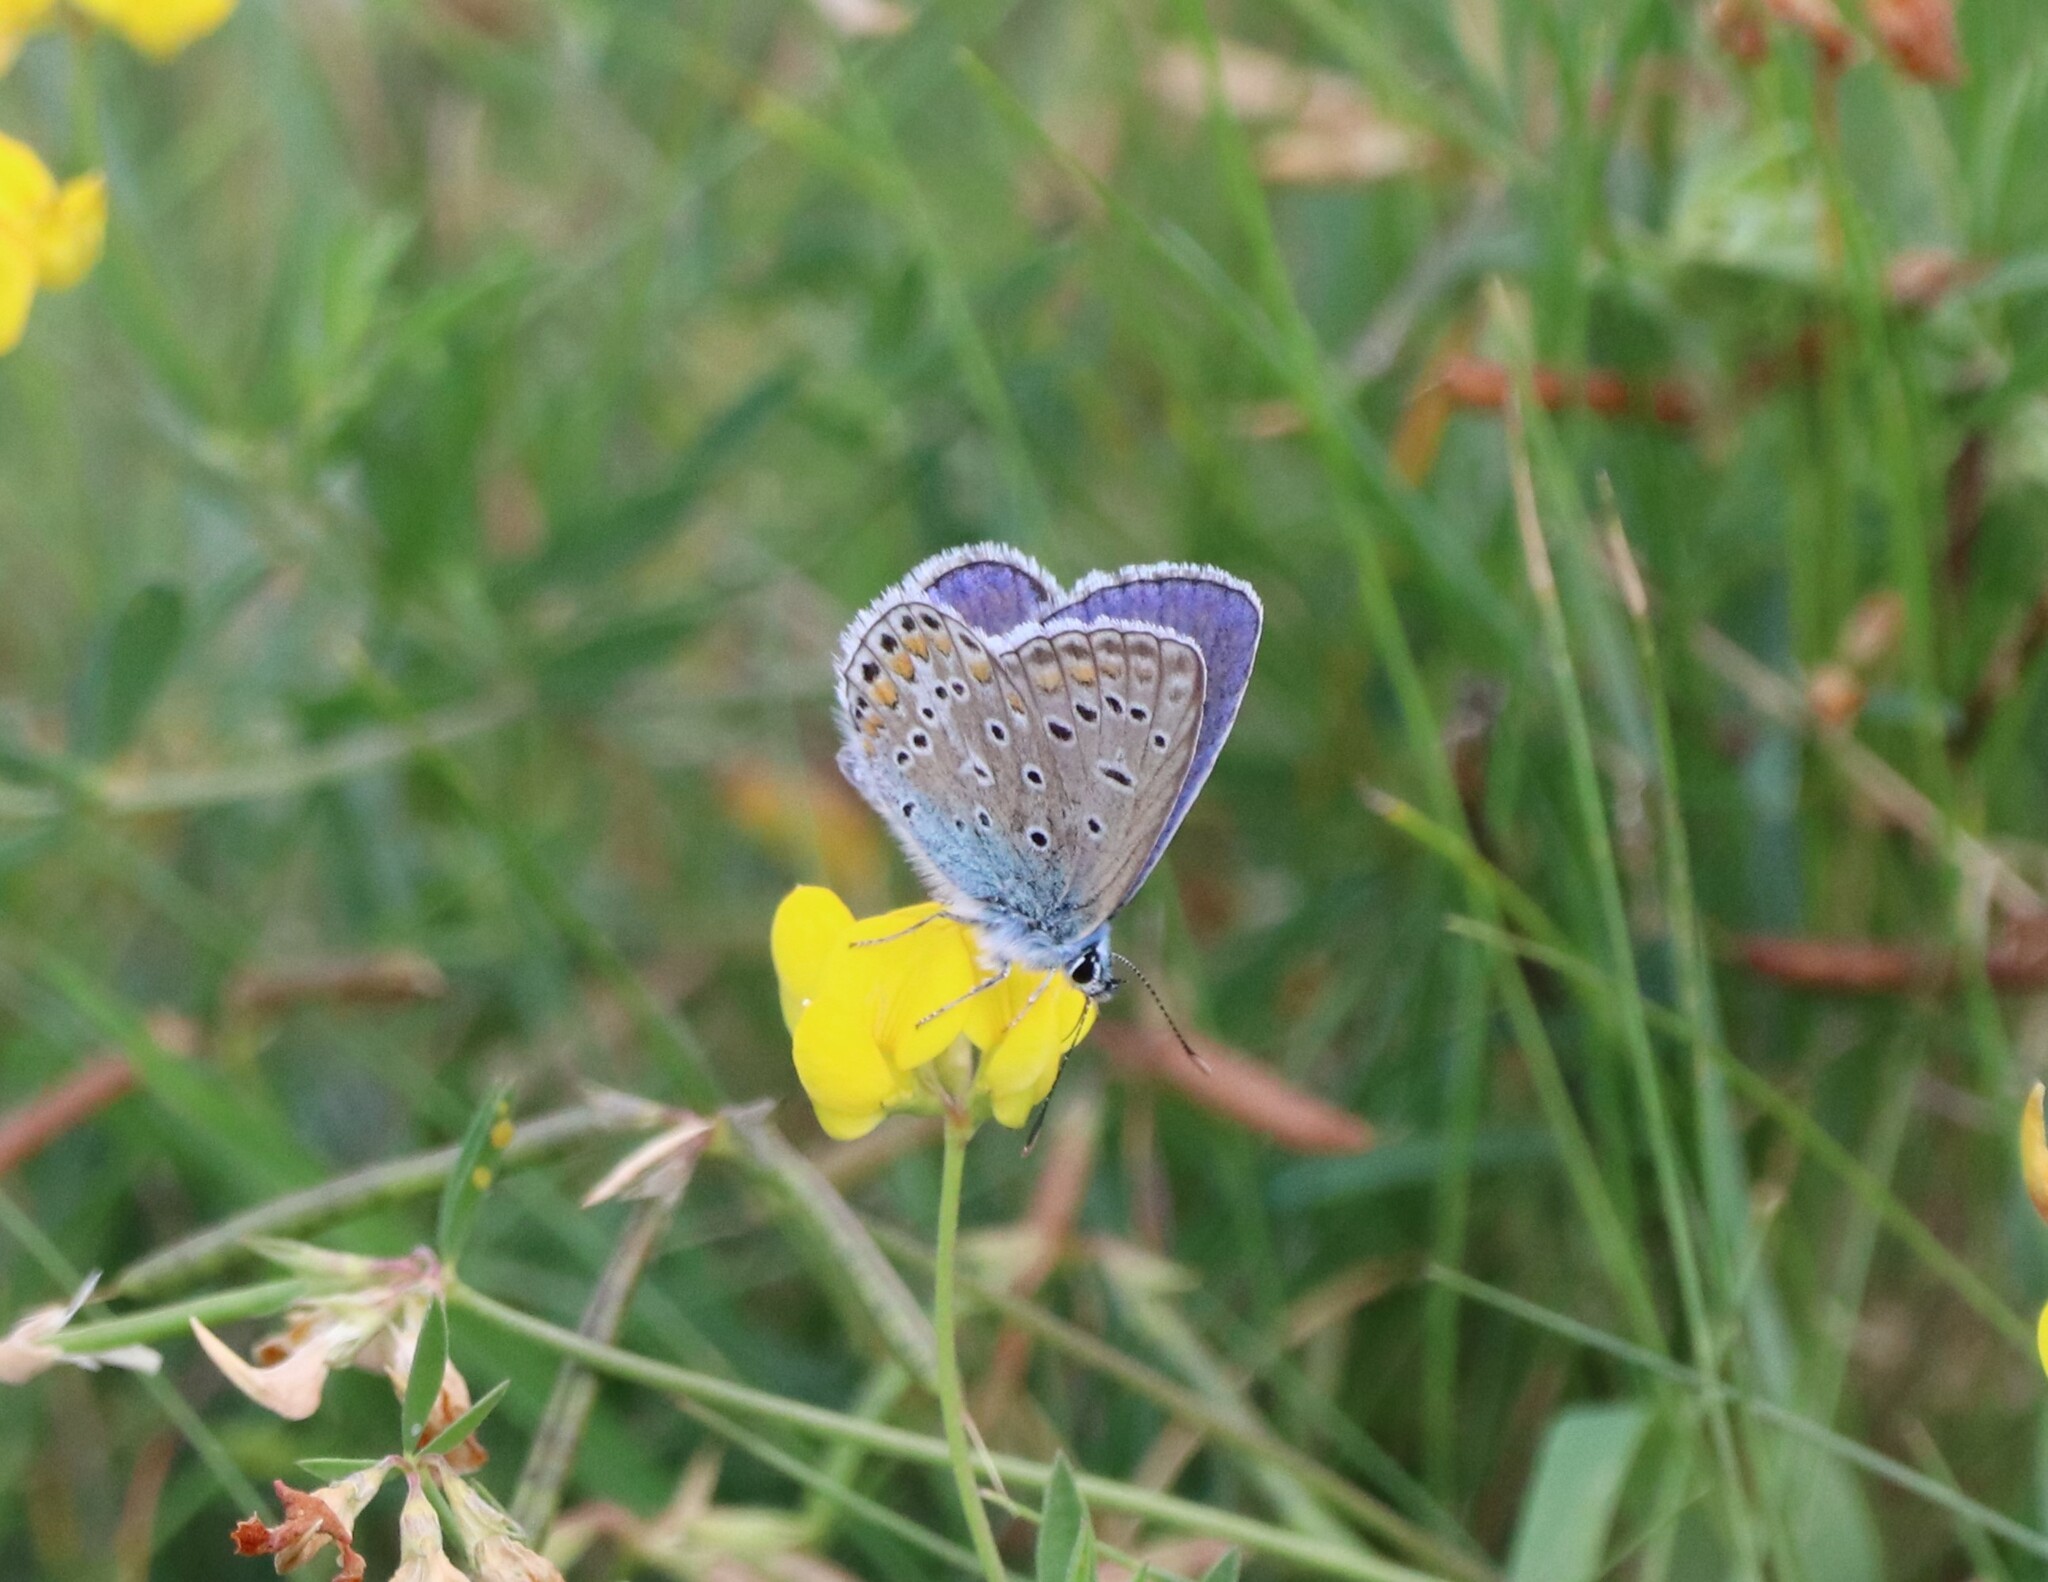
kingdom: Animalia
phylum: Arthropoda
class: Insecta
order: Lepidoptera
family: Lycaenidae
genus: Polyommatus
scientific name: Polyommatus icarus
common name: Common blue
